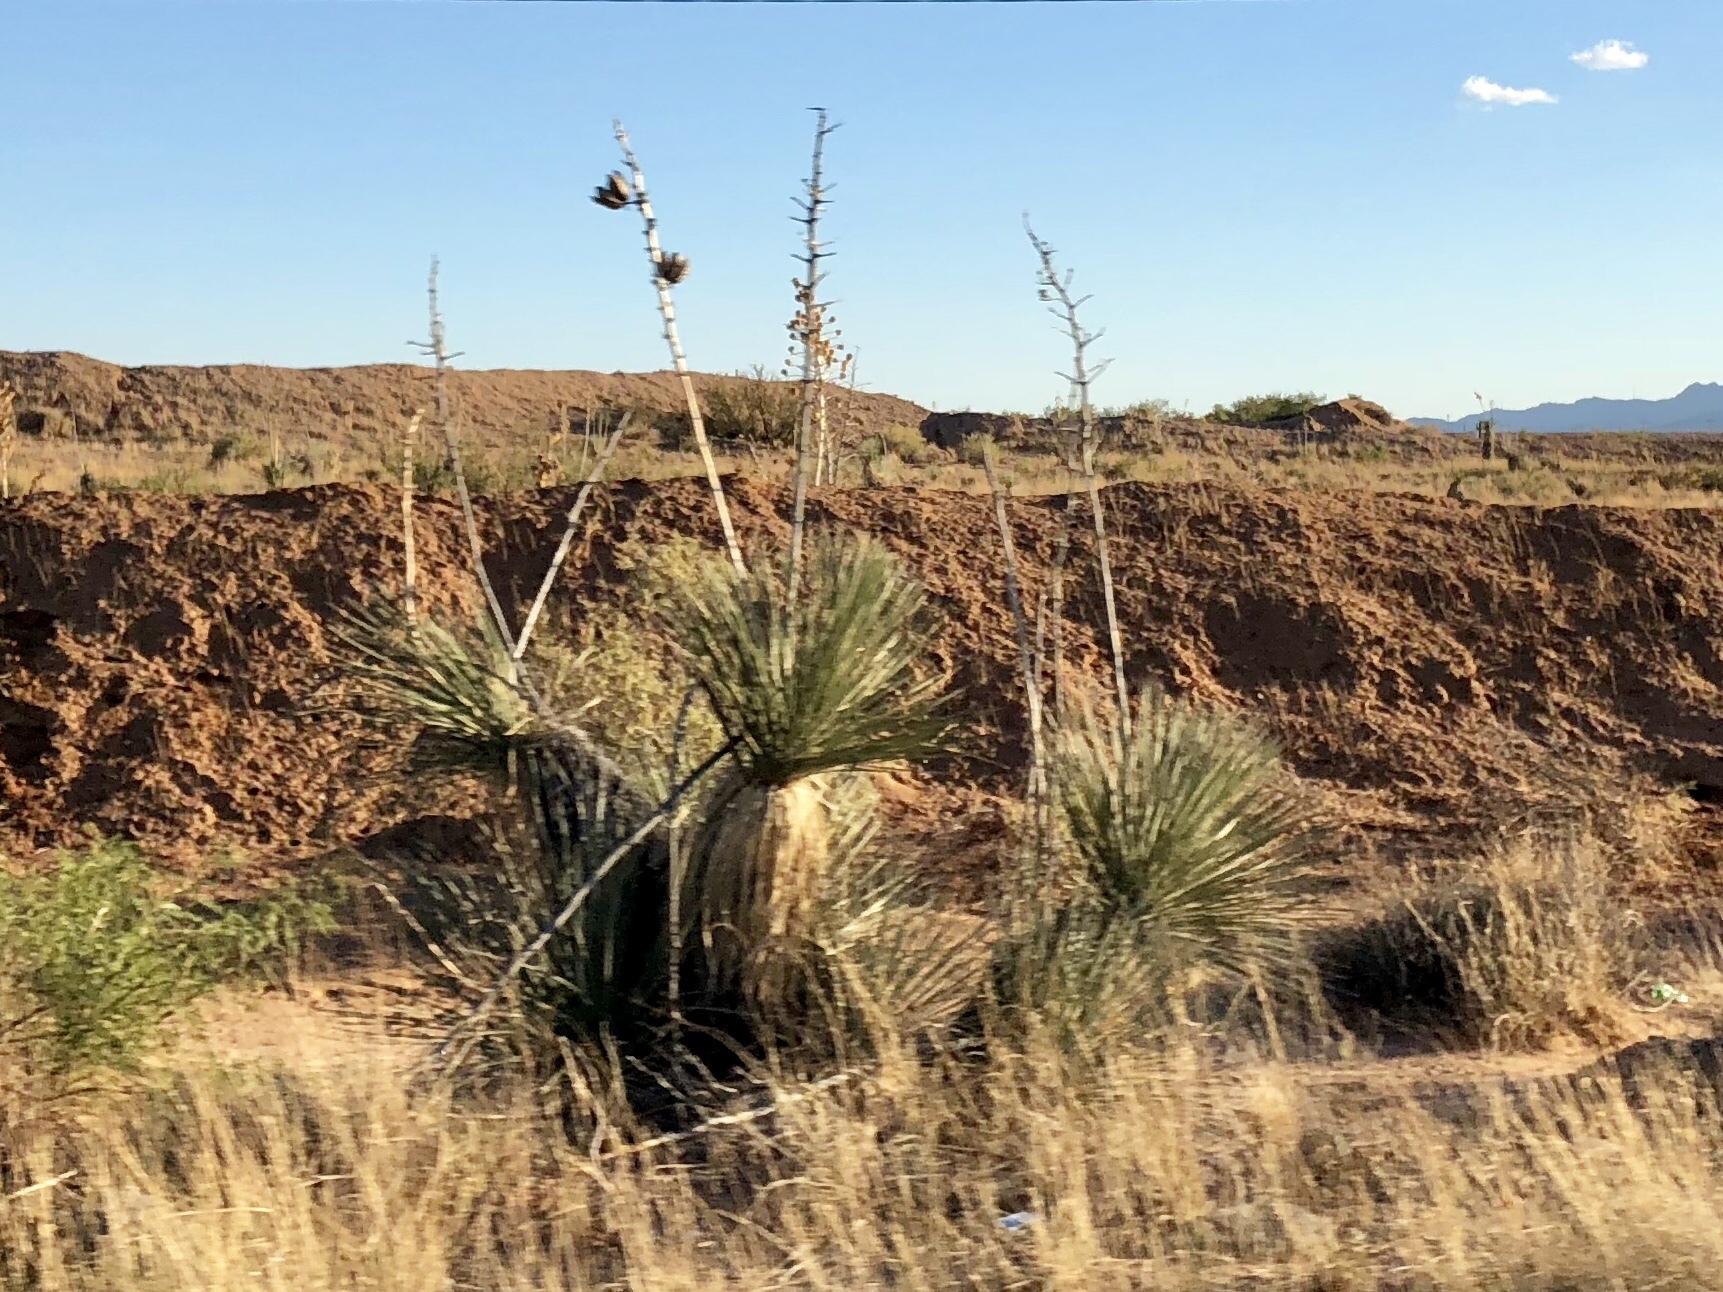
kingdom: Plantae
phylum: Tracheophyta
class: Liliopsida
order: Asparagales
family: Asparagaceae
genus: Yucca
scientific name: Yucca elata
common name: Palmella
